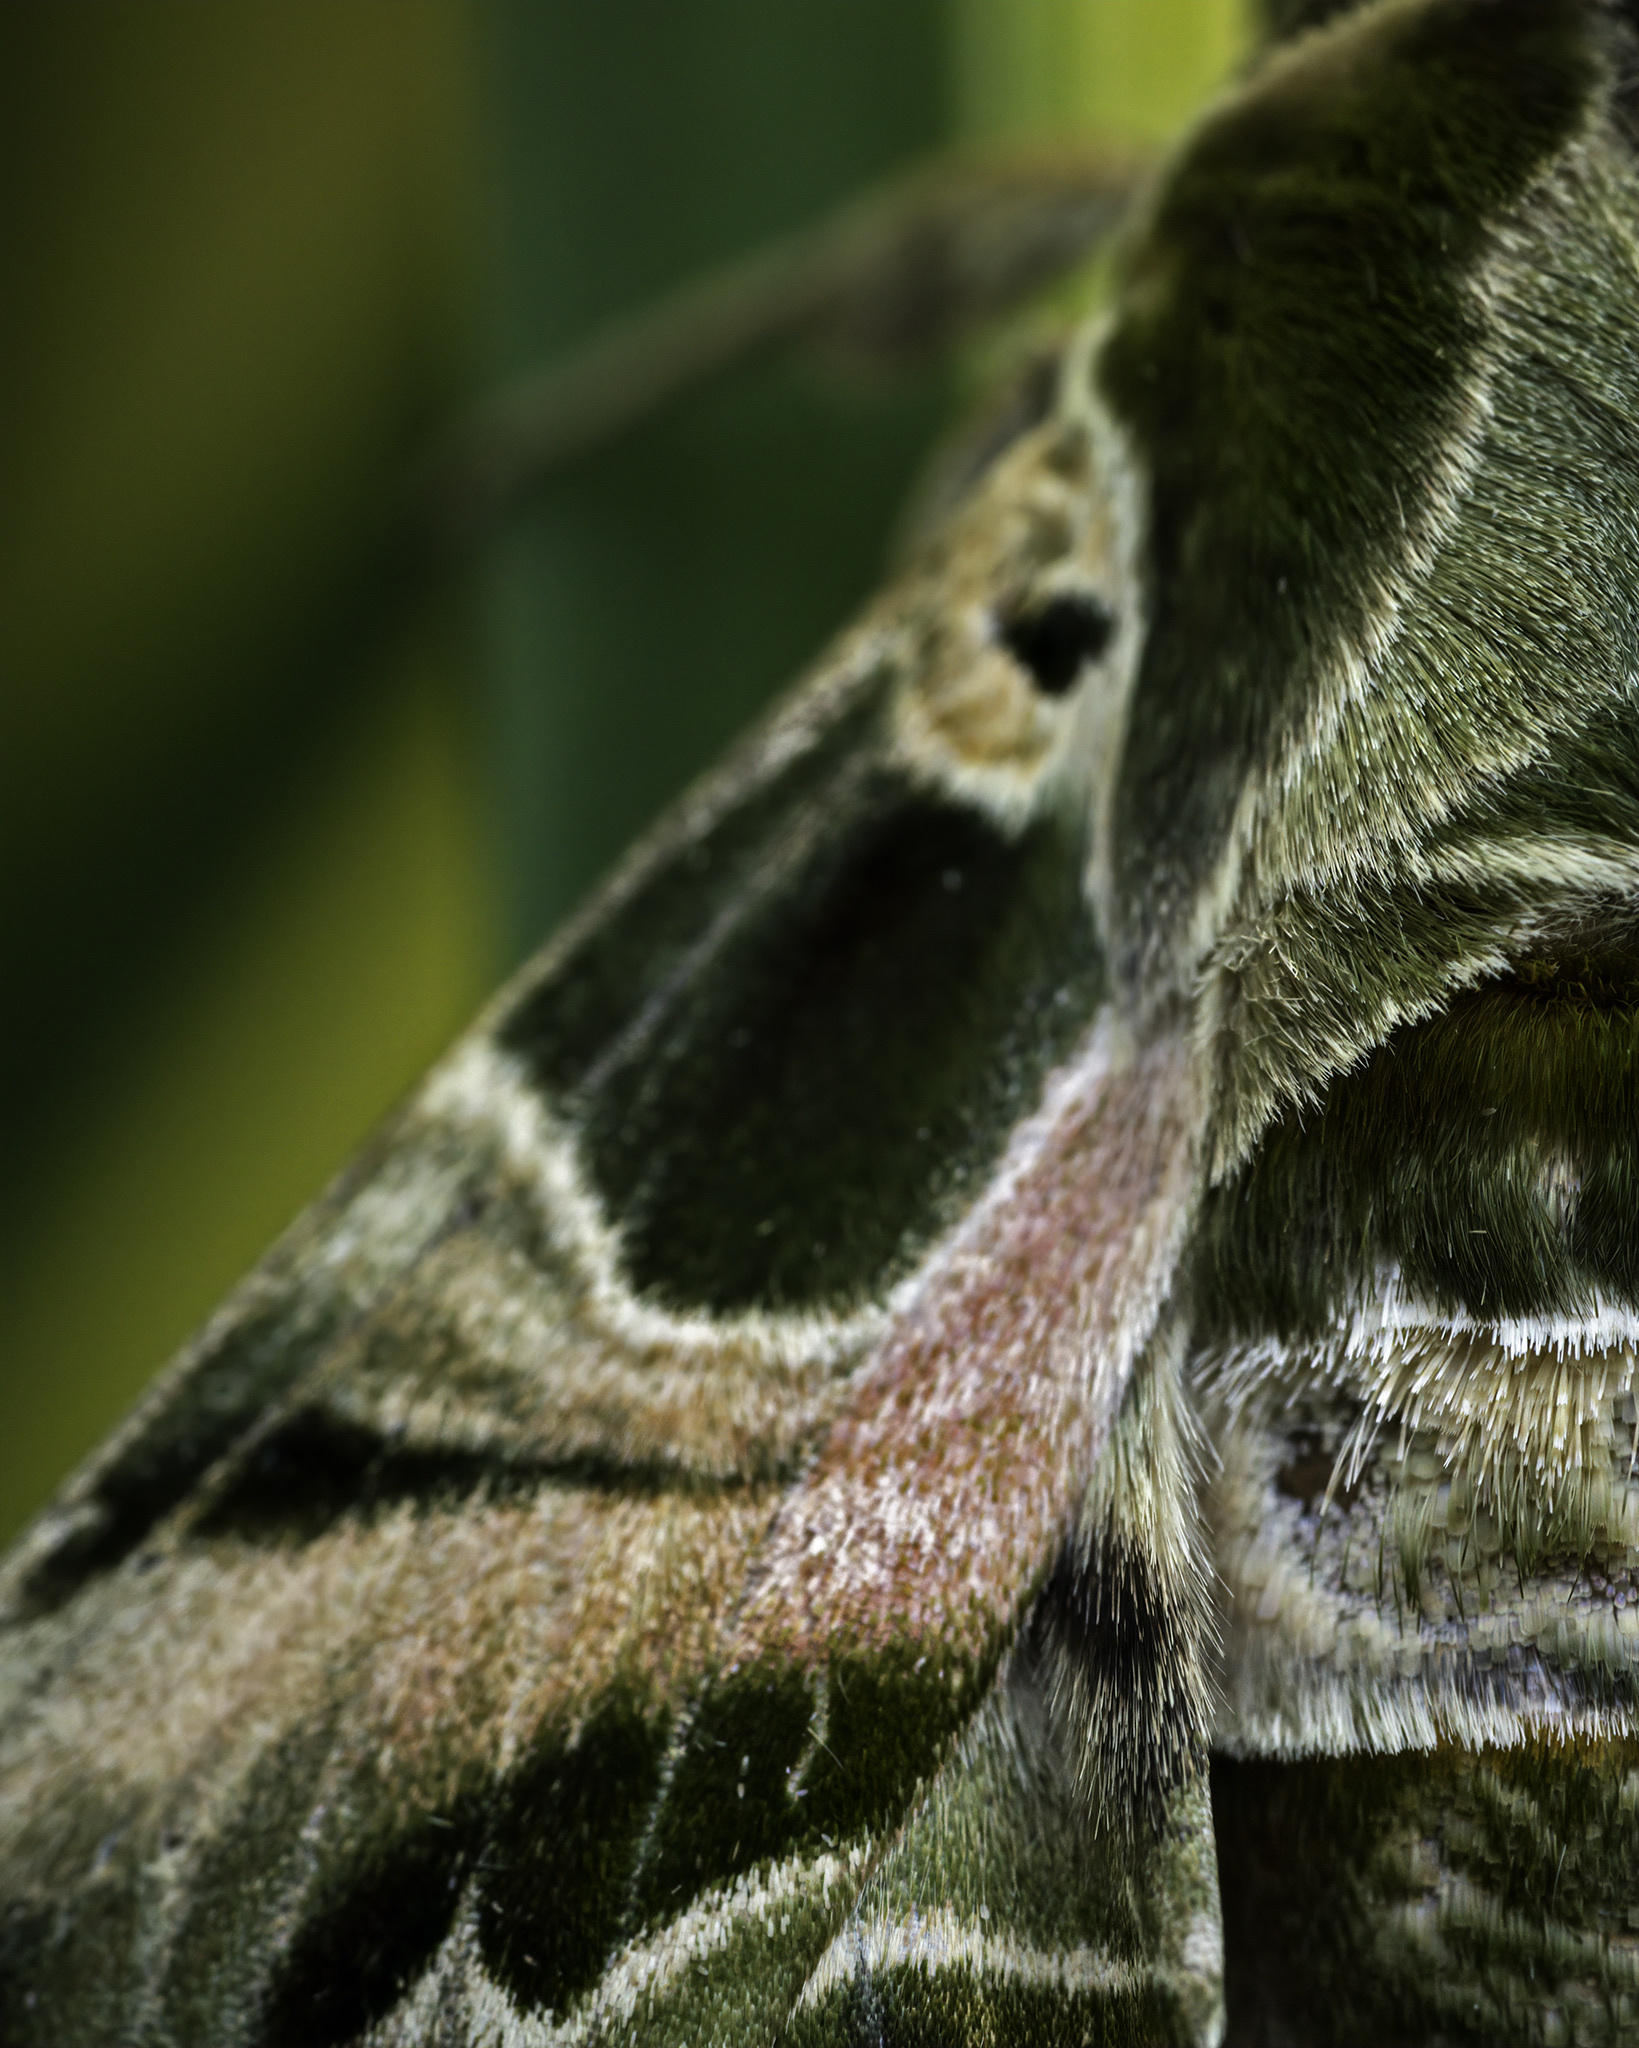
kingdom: Animalia
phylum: Arthropoda
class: Insecta
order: Lepidoptera
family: Sphingidae
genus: Daphnis
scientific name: Daphnis nerii
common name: Oleander hawk-moth
